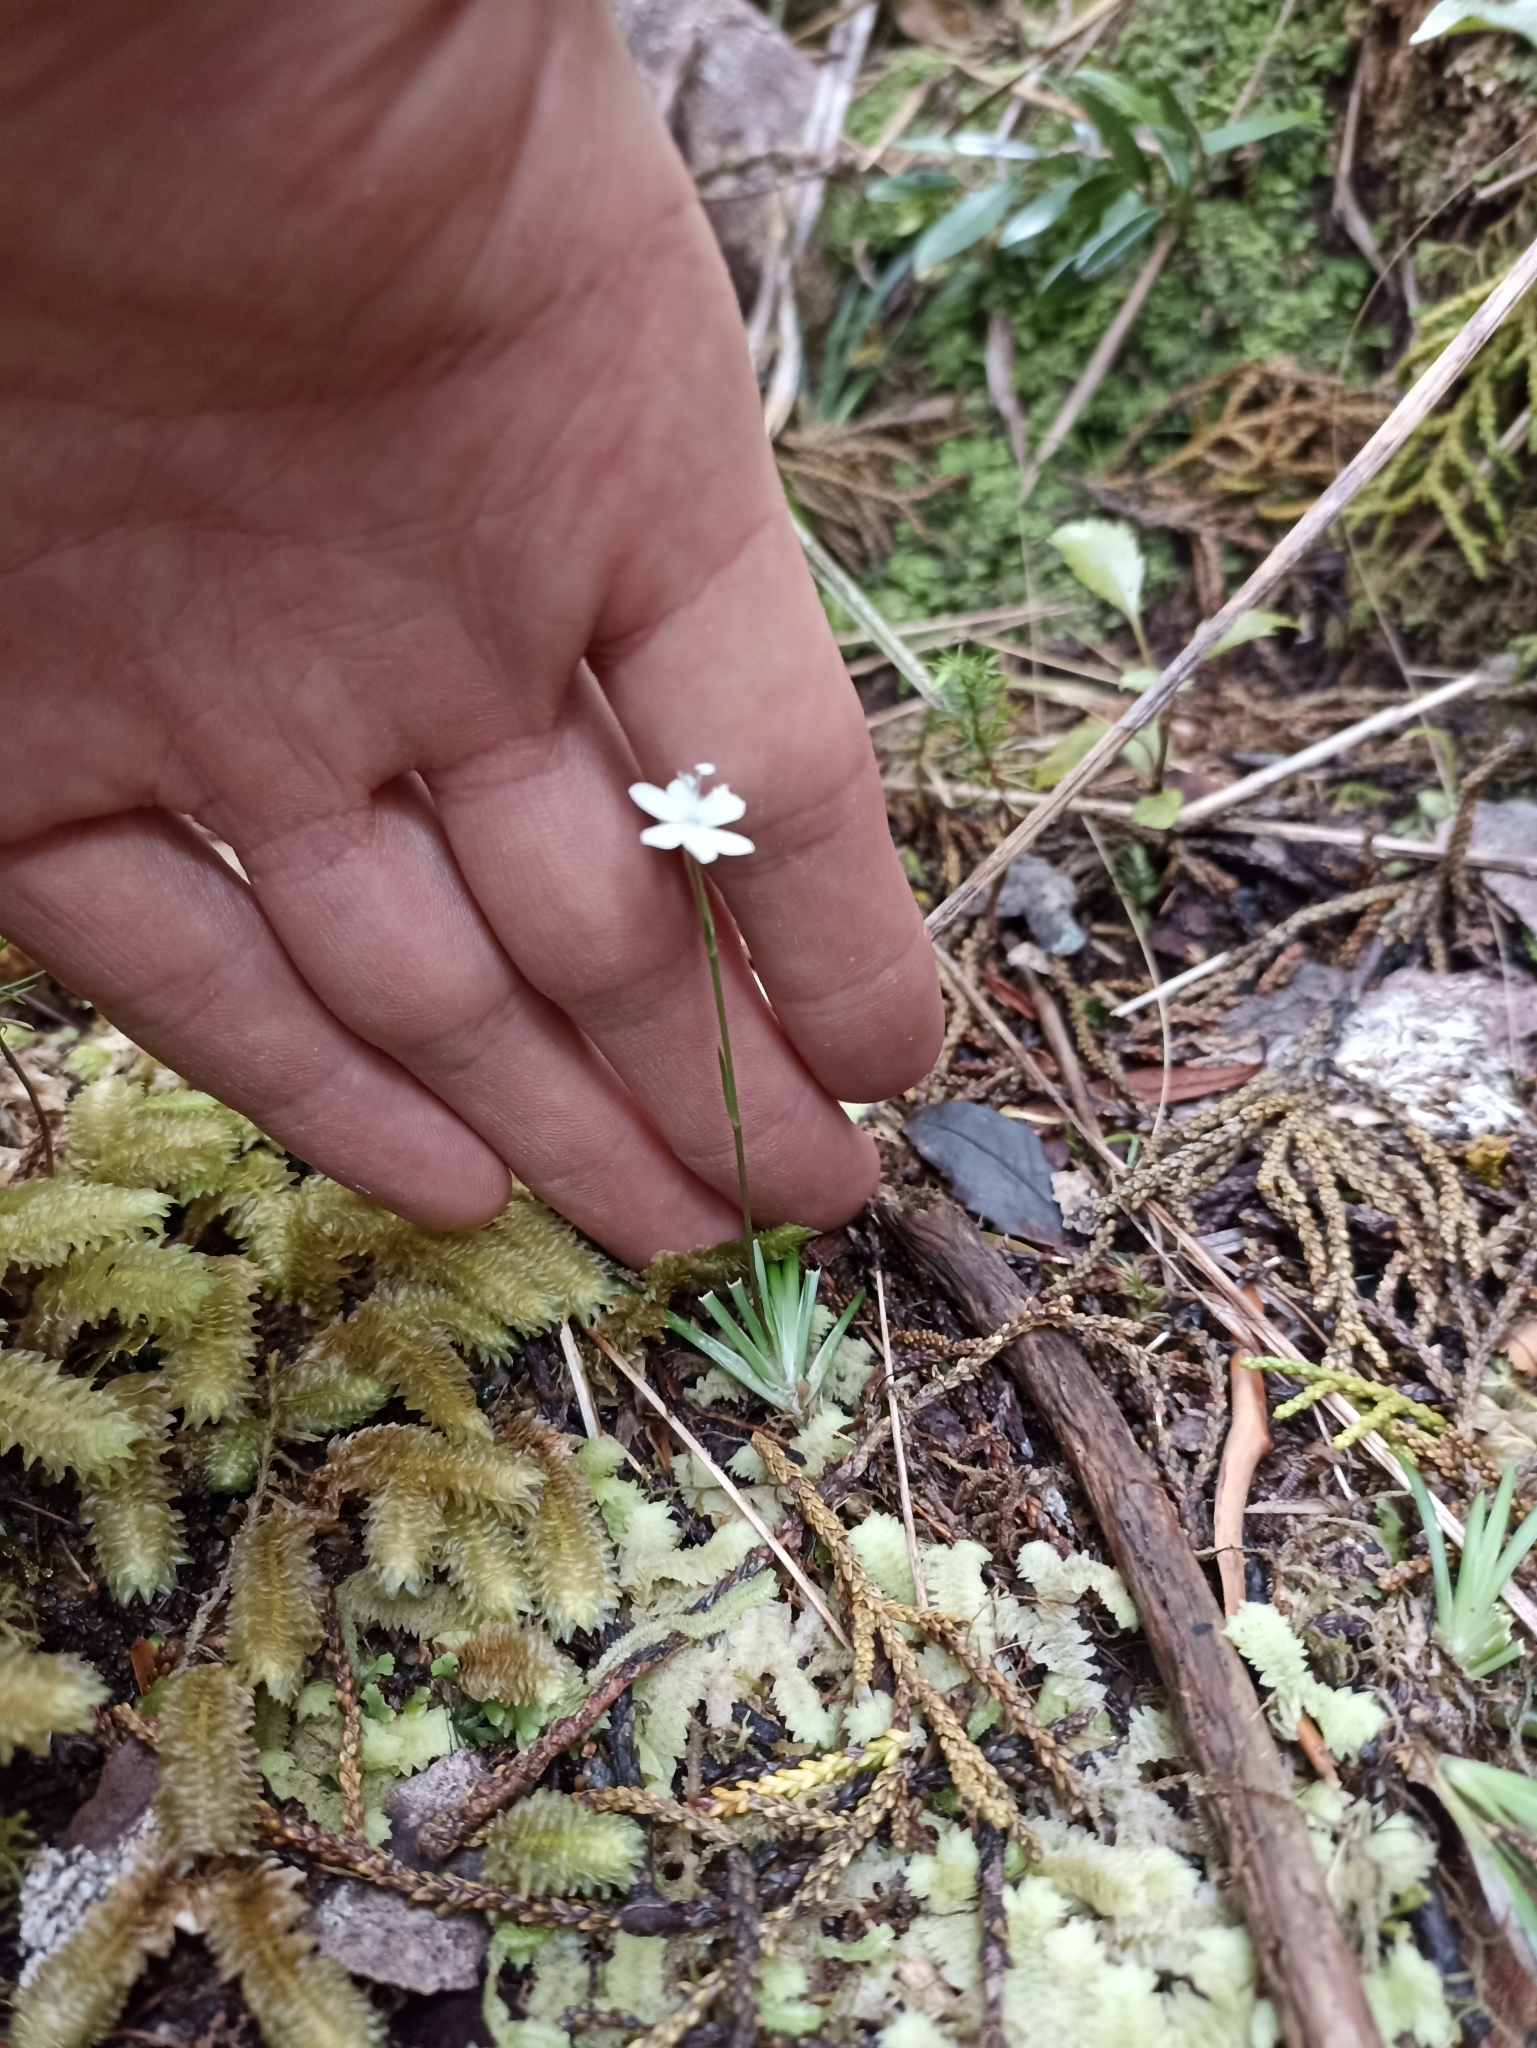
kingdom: Plantae
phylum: Tracheophyta
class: Liliopsida
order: Asparagales
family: Iridaceae
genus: Libertia
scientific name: Libertia micrantha
